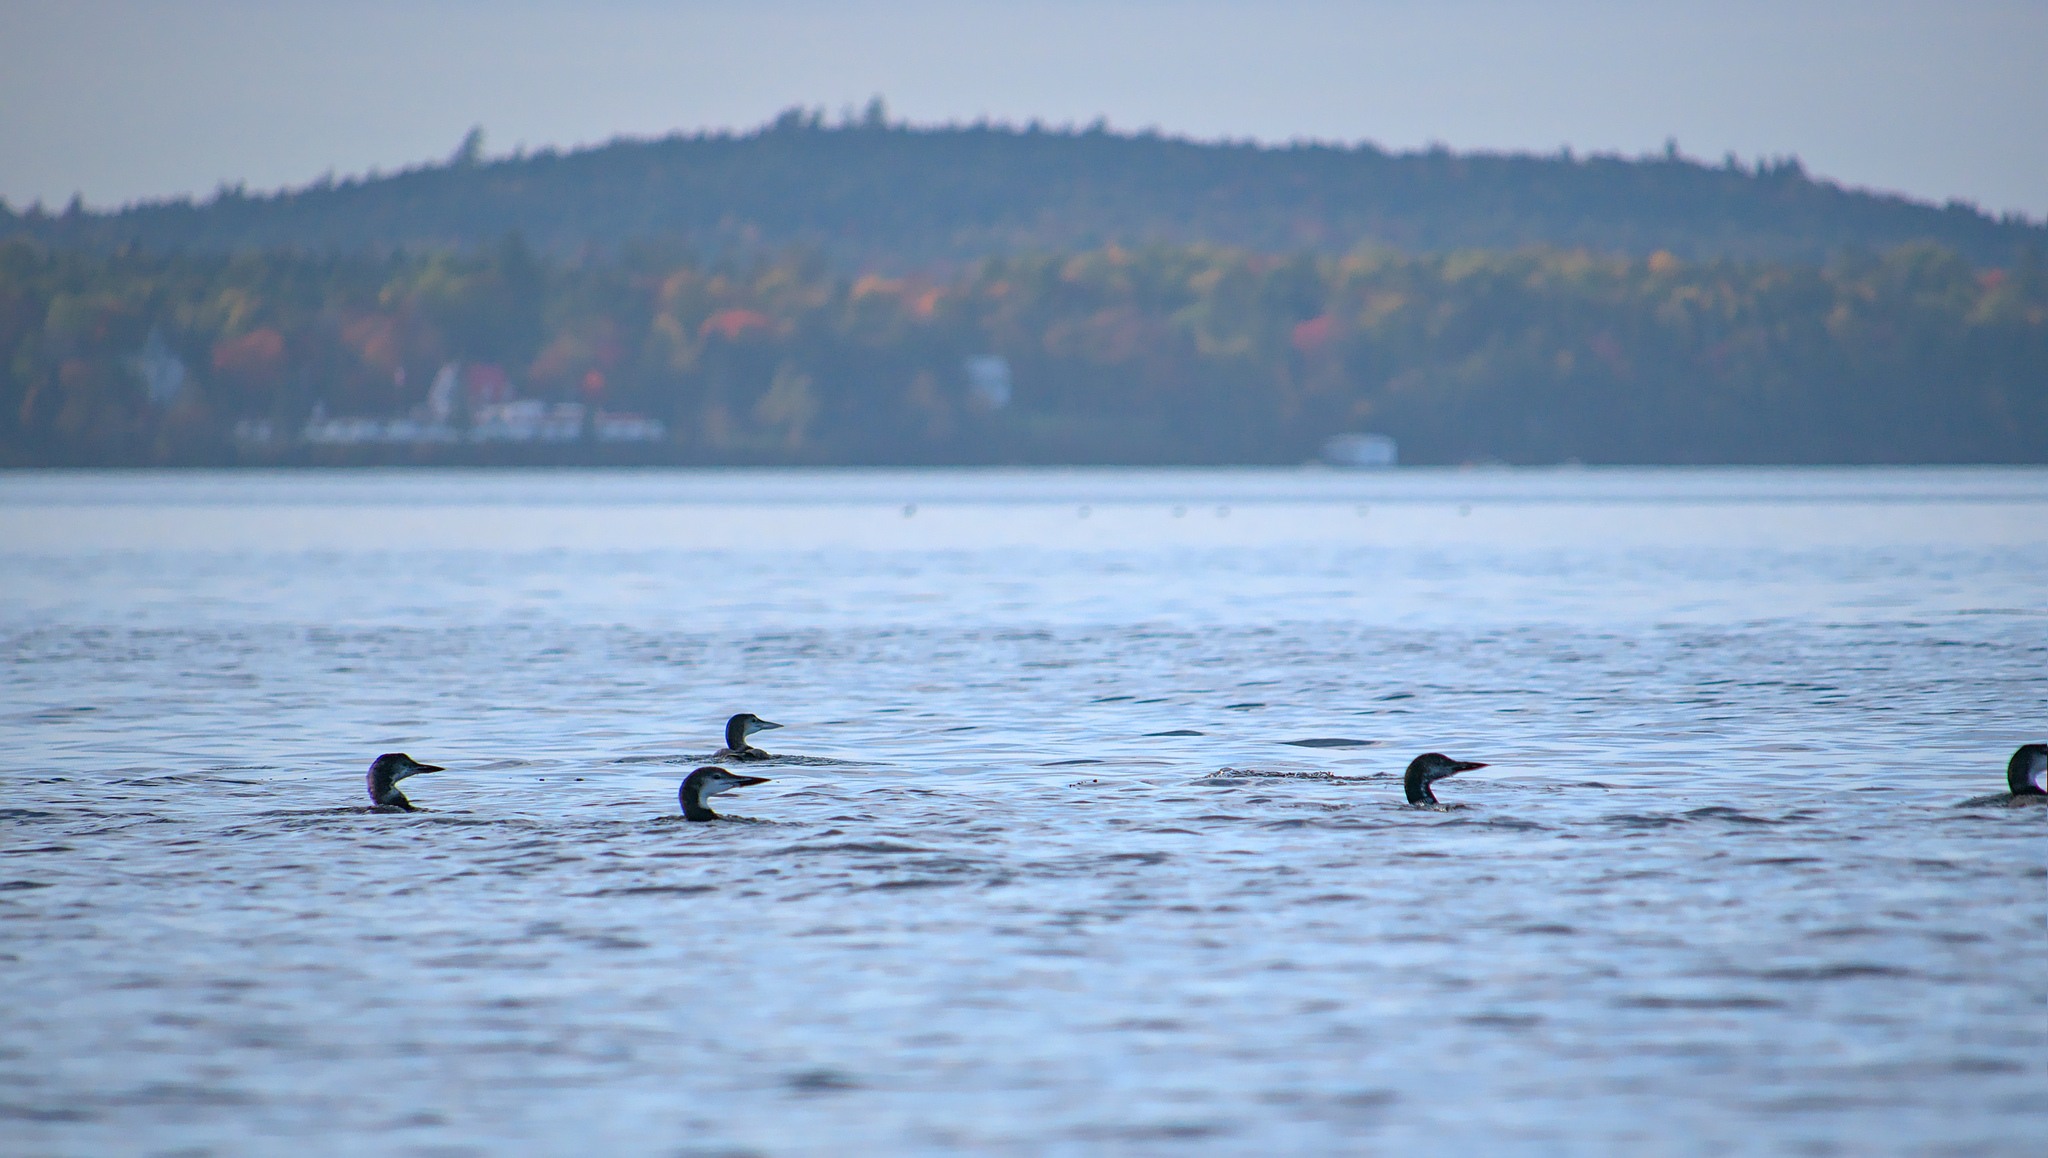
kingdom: Animalia
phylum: Chordata
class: Aves
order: Gaviiformes
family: Gaviidae
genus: Gavia
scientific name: Gavia immer
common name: Common loon
